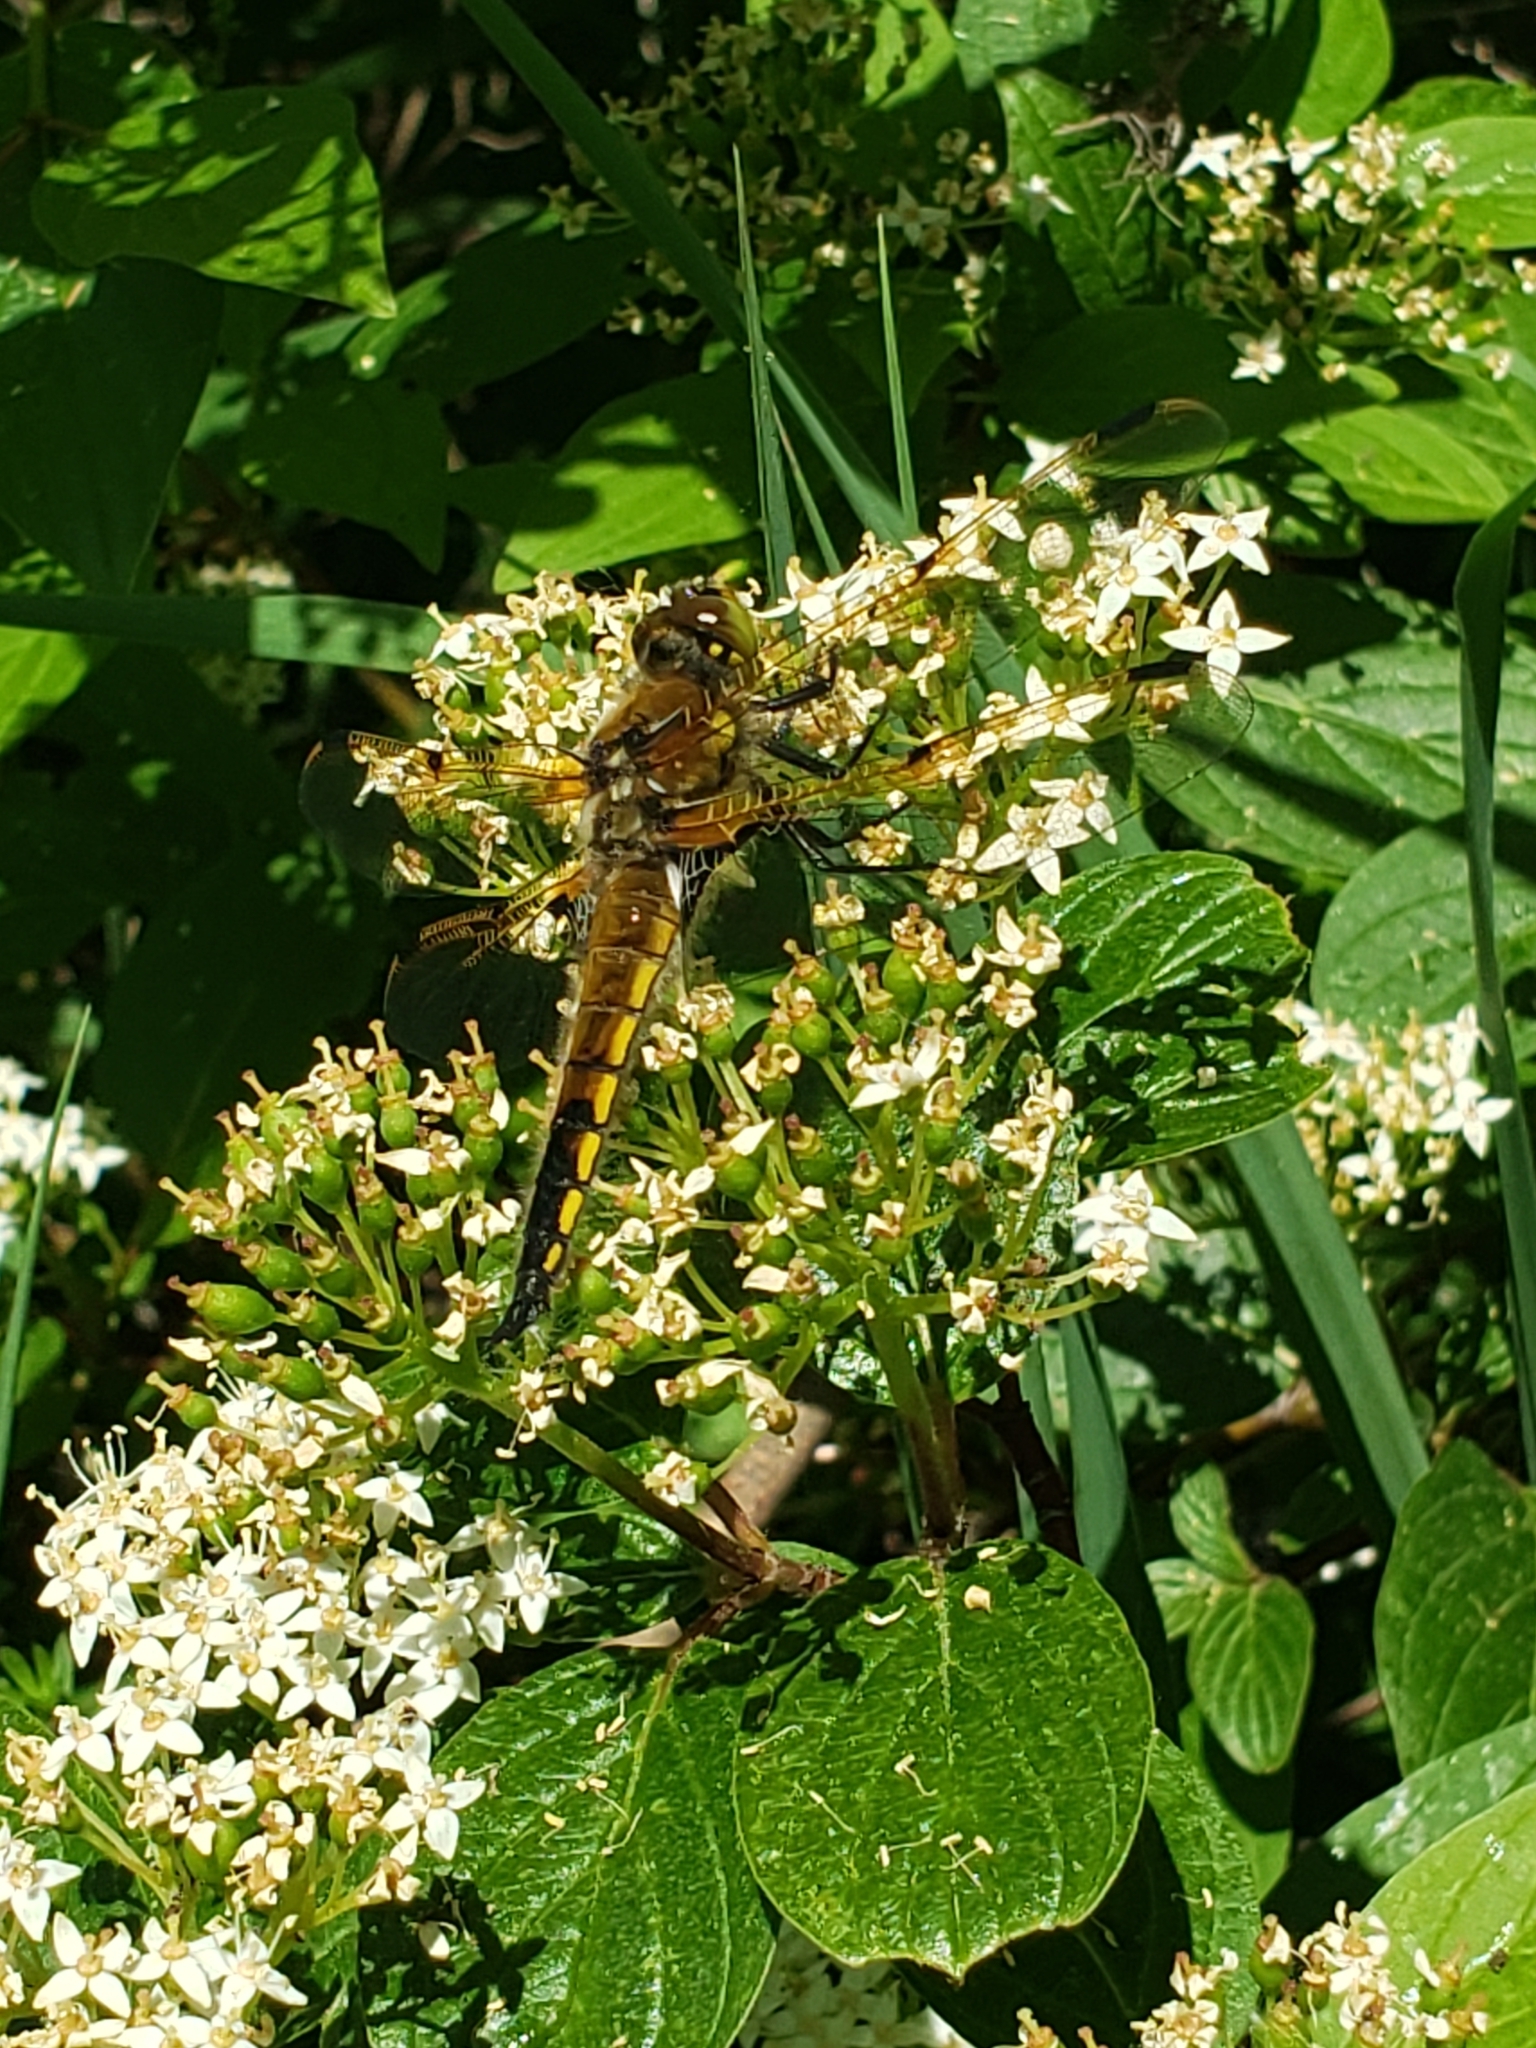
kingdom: Animalia
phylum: Arthropoda
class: Insecta
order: Odonata
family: Libellulidae
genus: Libellula
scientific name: Libellula quadrimaculata
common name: Four-spotted chaser
